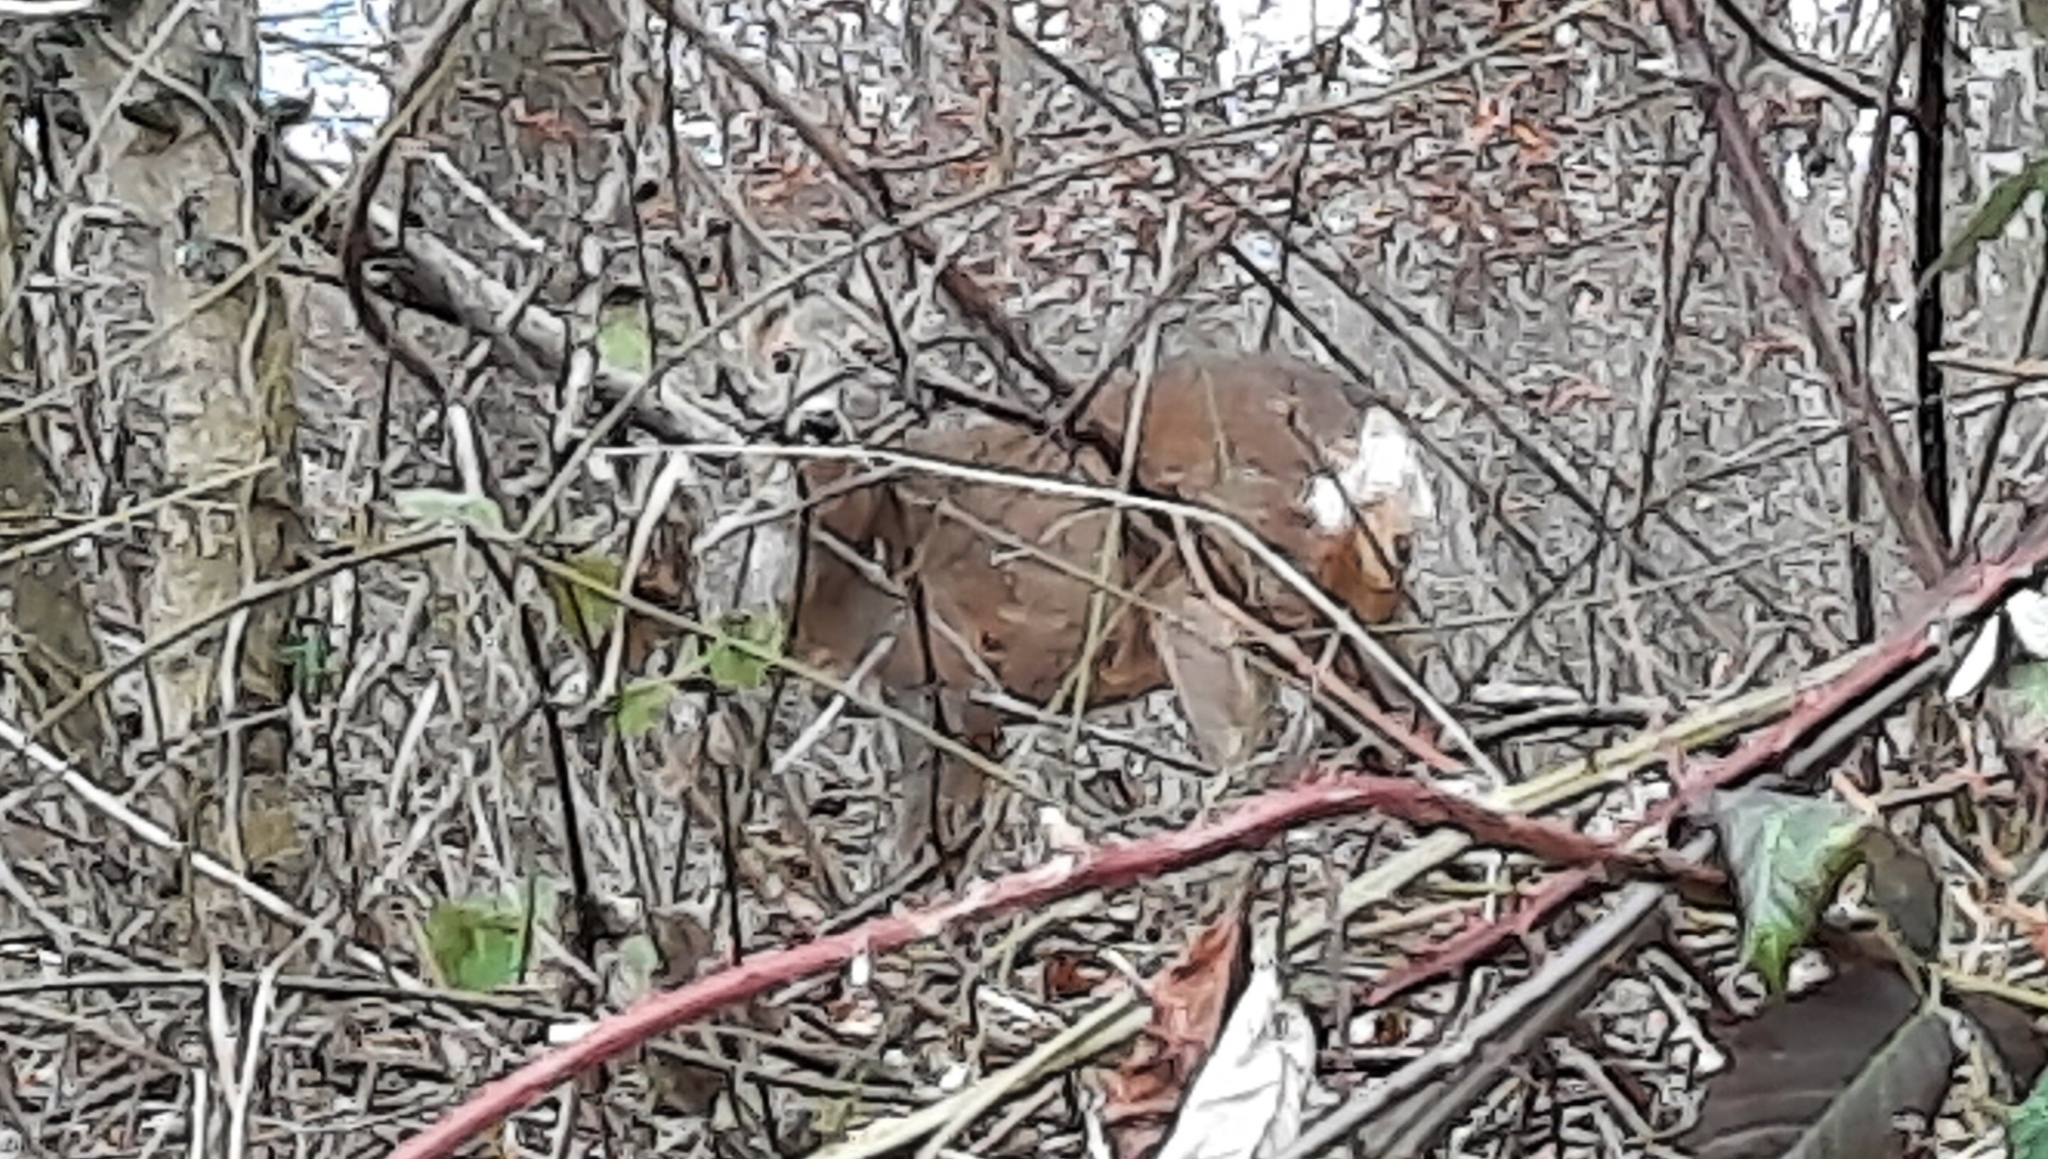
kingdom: Animalia
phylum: Chordata
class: Mammalia
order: Artiodactyla
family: Cervidae
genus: Capreolus
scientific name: Capreolus capreolus
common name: Western roe deer
